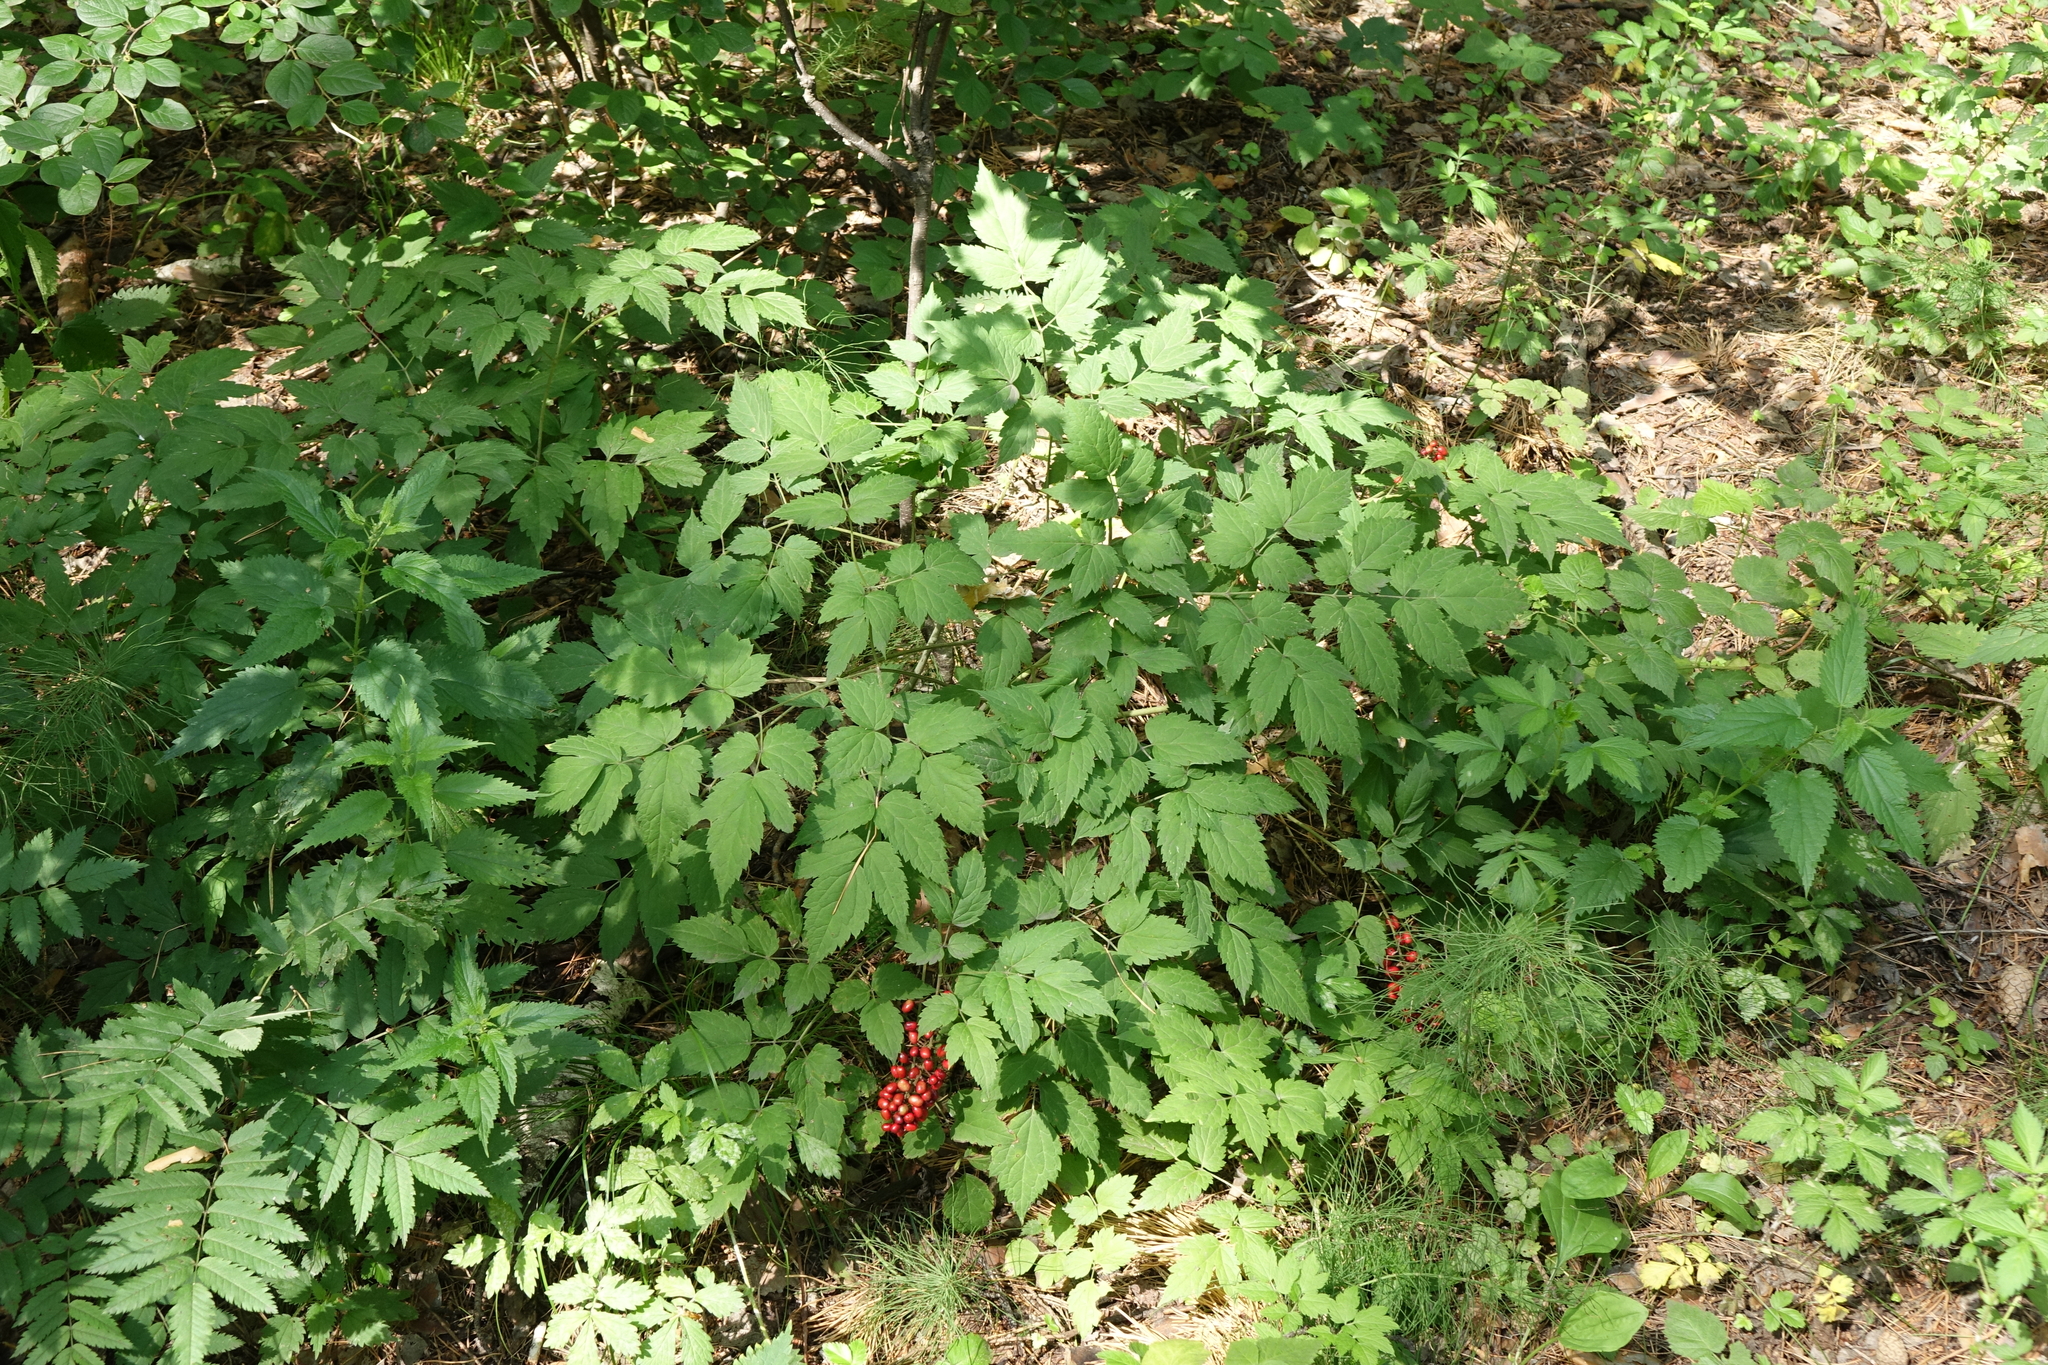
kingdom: Plantae
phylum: Tracheophyta
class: Magnoliopsida
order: Ranunculales
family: Ranunculaceae
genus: Actaea
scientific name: Actaea erythrocarpa
